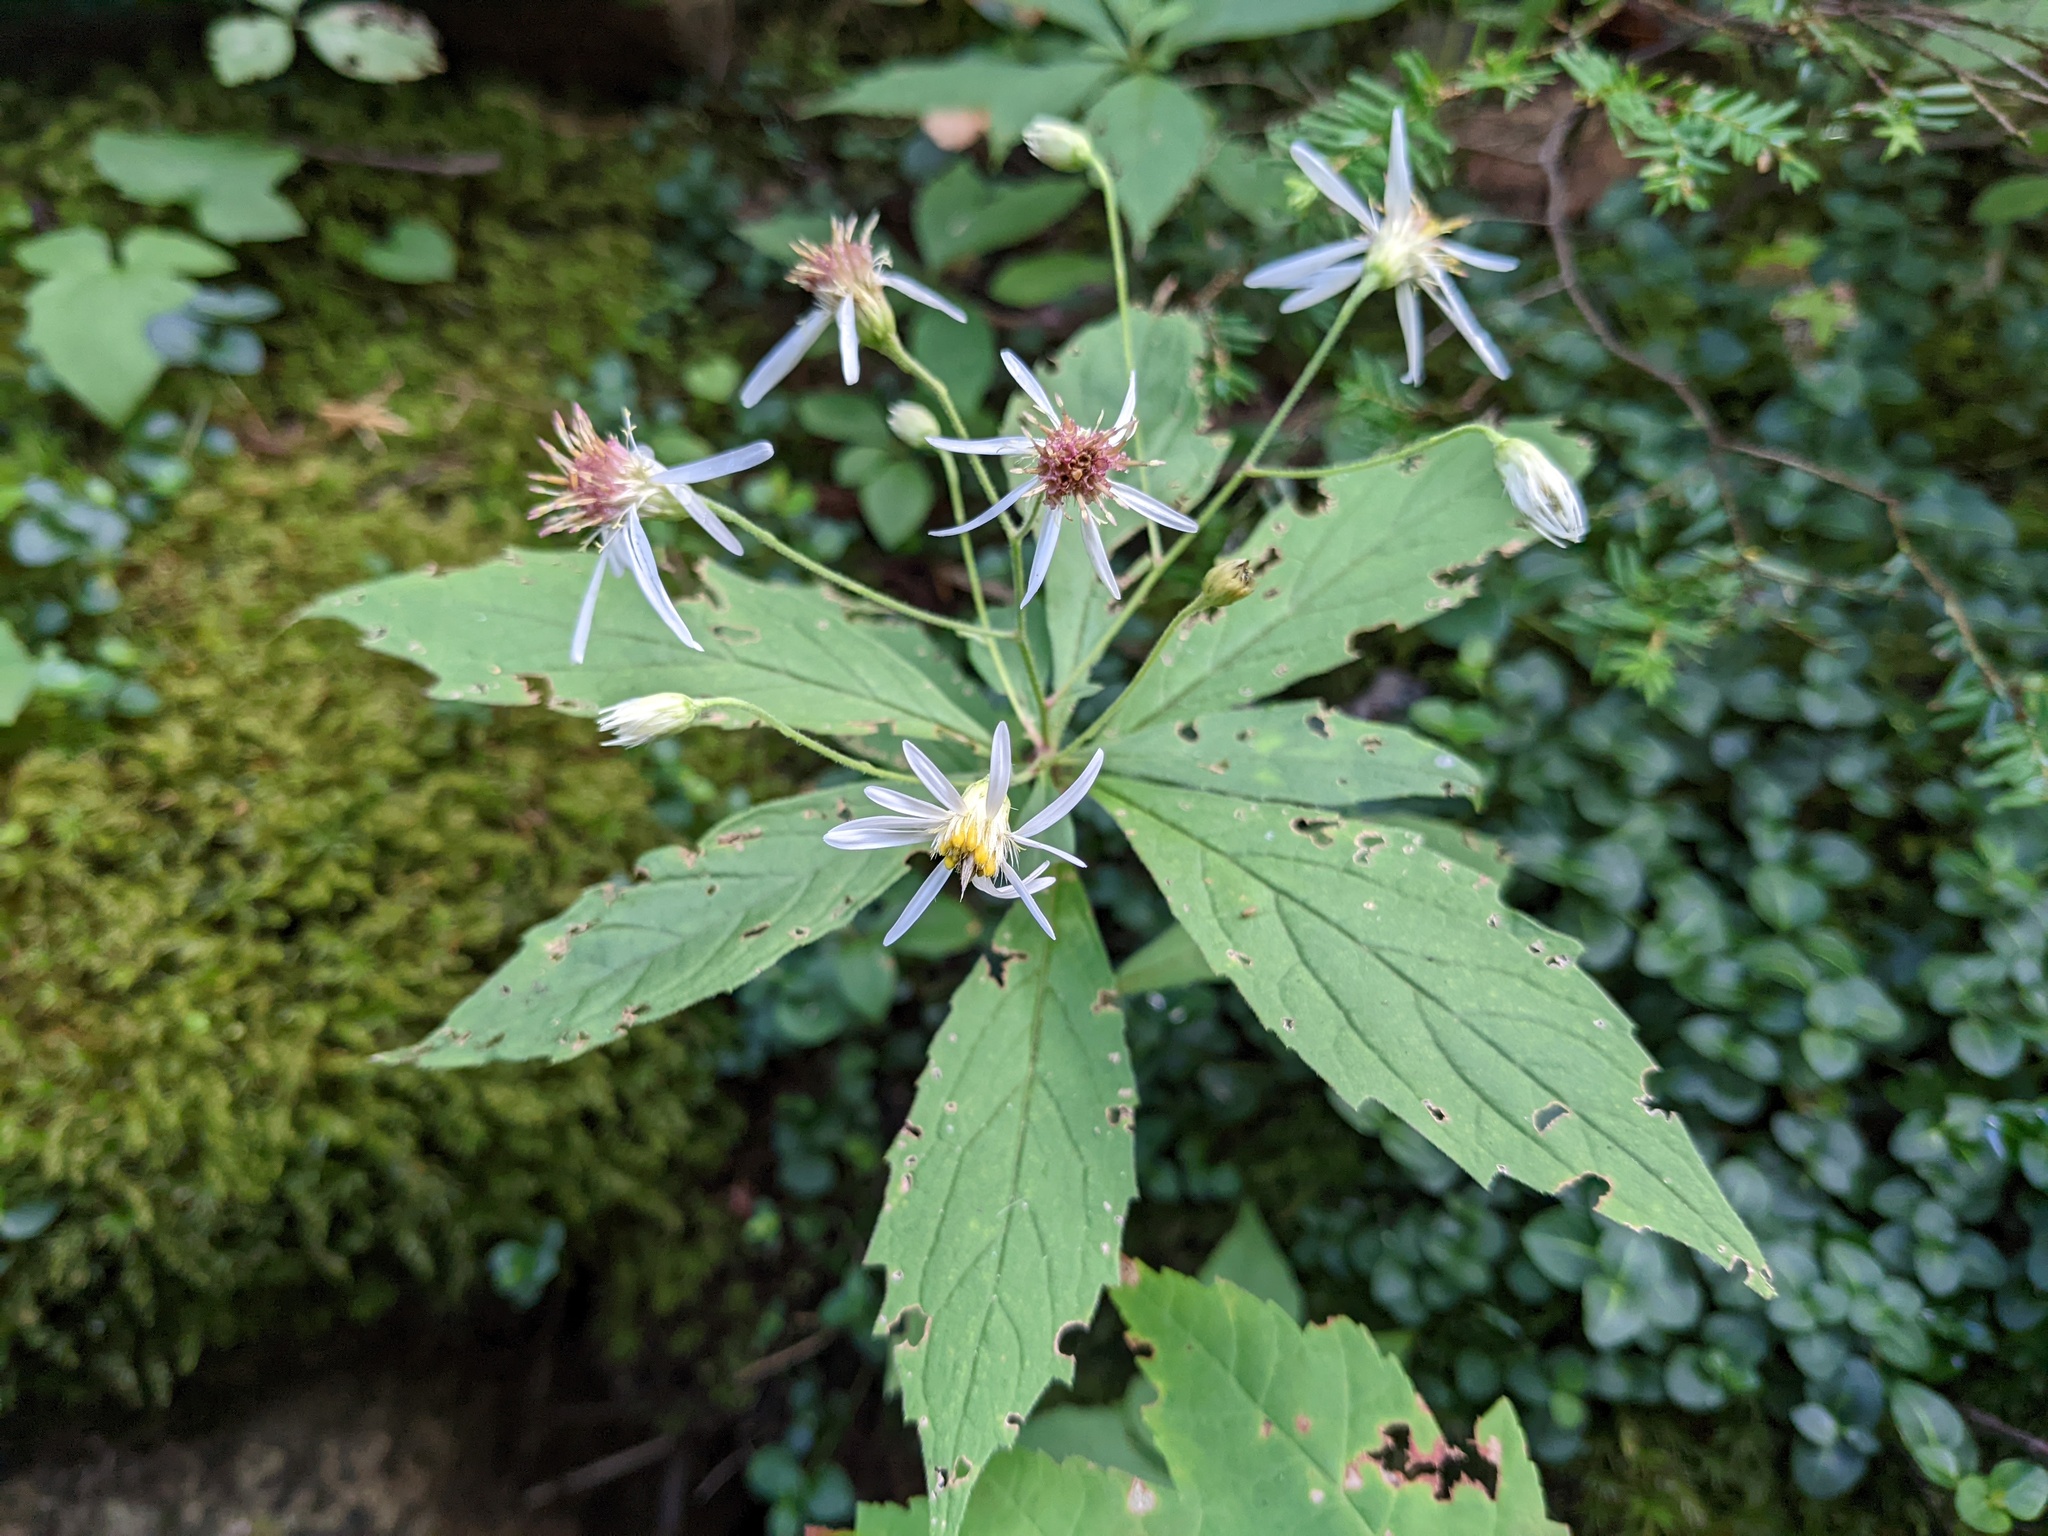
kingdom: Plantae
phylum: Tracheophyta
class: Magnoliopsida
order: Asterales
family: Asteraceae
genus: Oclemena
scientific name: Oclemena acuminata
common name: Mountain aster
